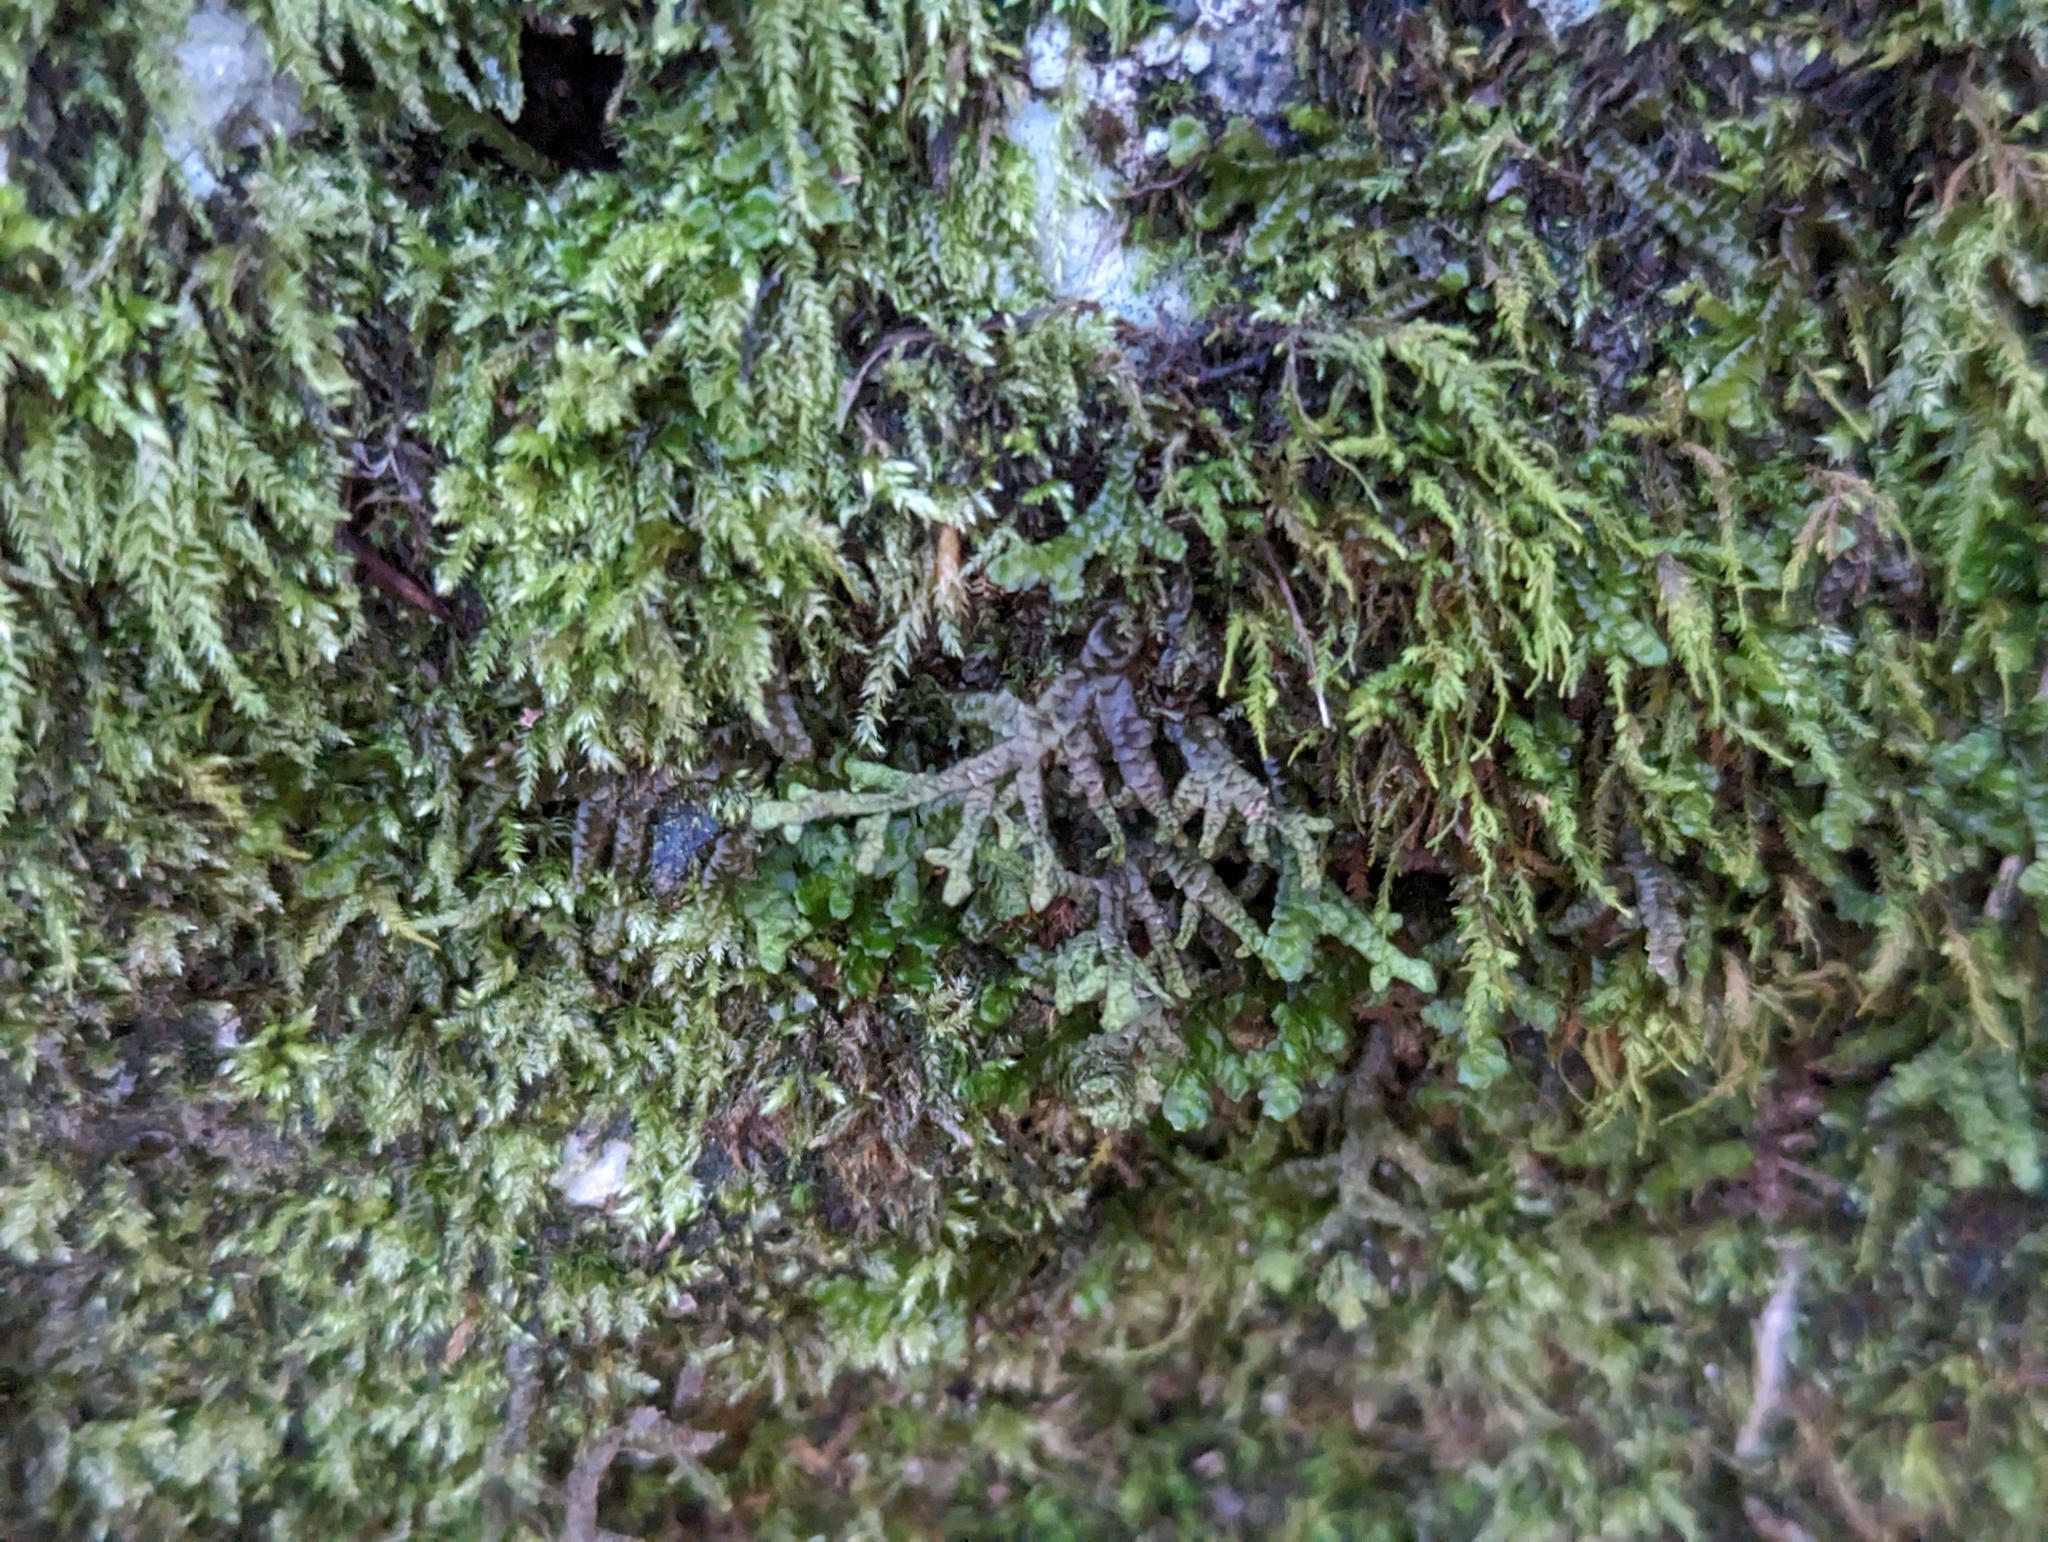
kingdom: Plantae
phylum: Marchantiophyta
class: Jungermanniopsida
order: Porellales
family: Porellaceae
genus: Porella
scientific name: Porella platyphylla
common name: Wall scalewort
